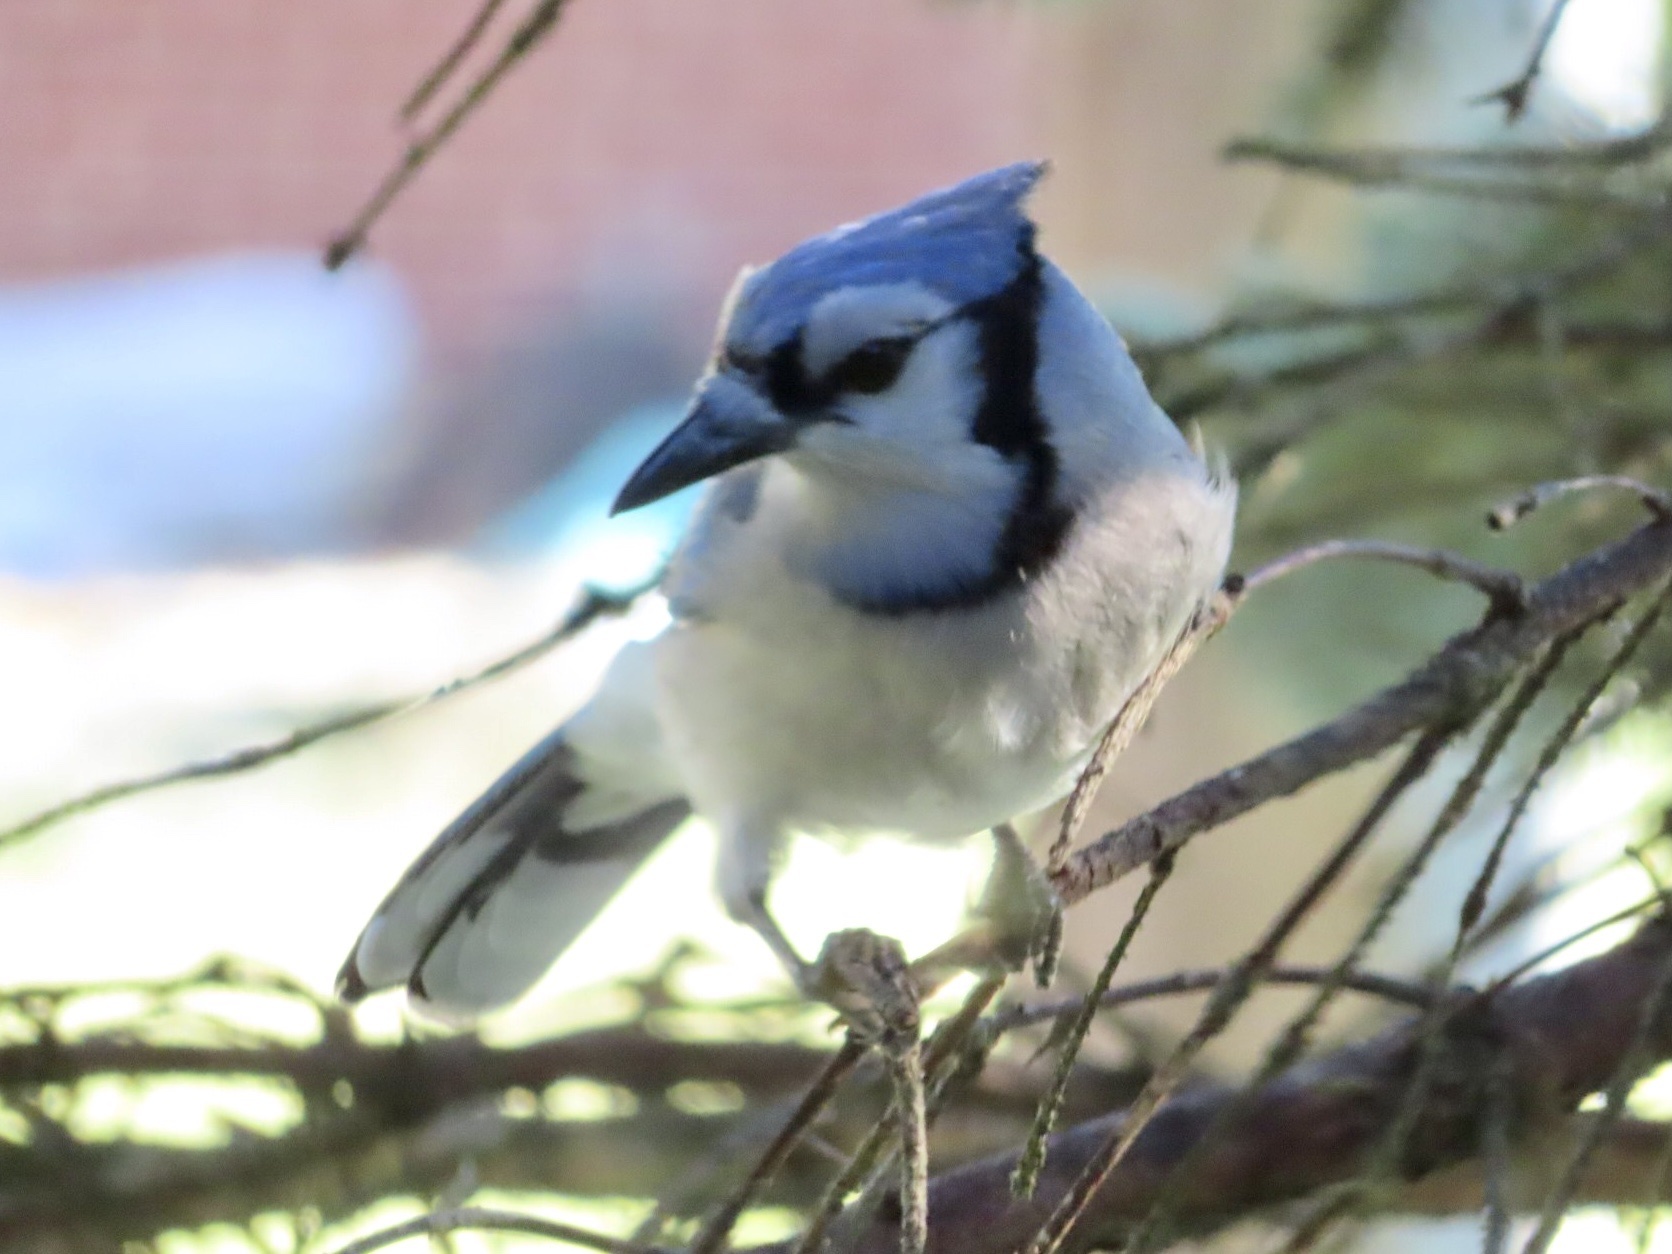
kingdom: Animalia
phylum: Chordata
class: Aves
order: Passeriformes
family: Corvidae
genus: Cyanocitta
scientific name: Cyanocitta cristata
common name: Blue jay
